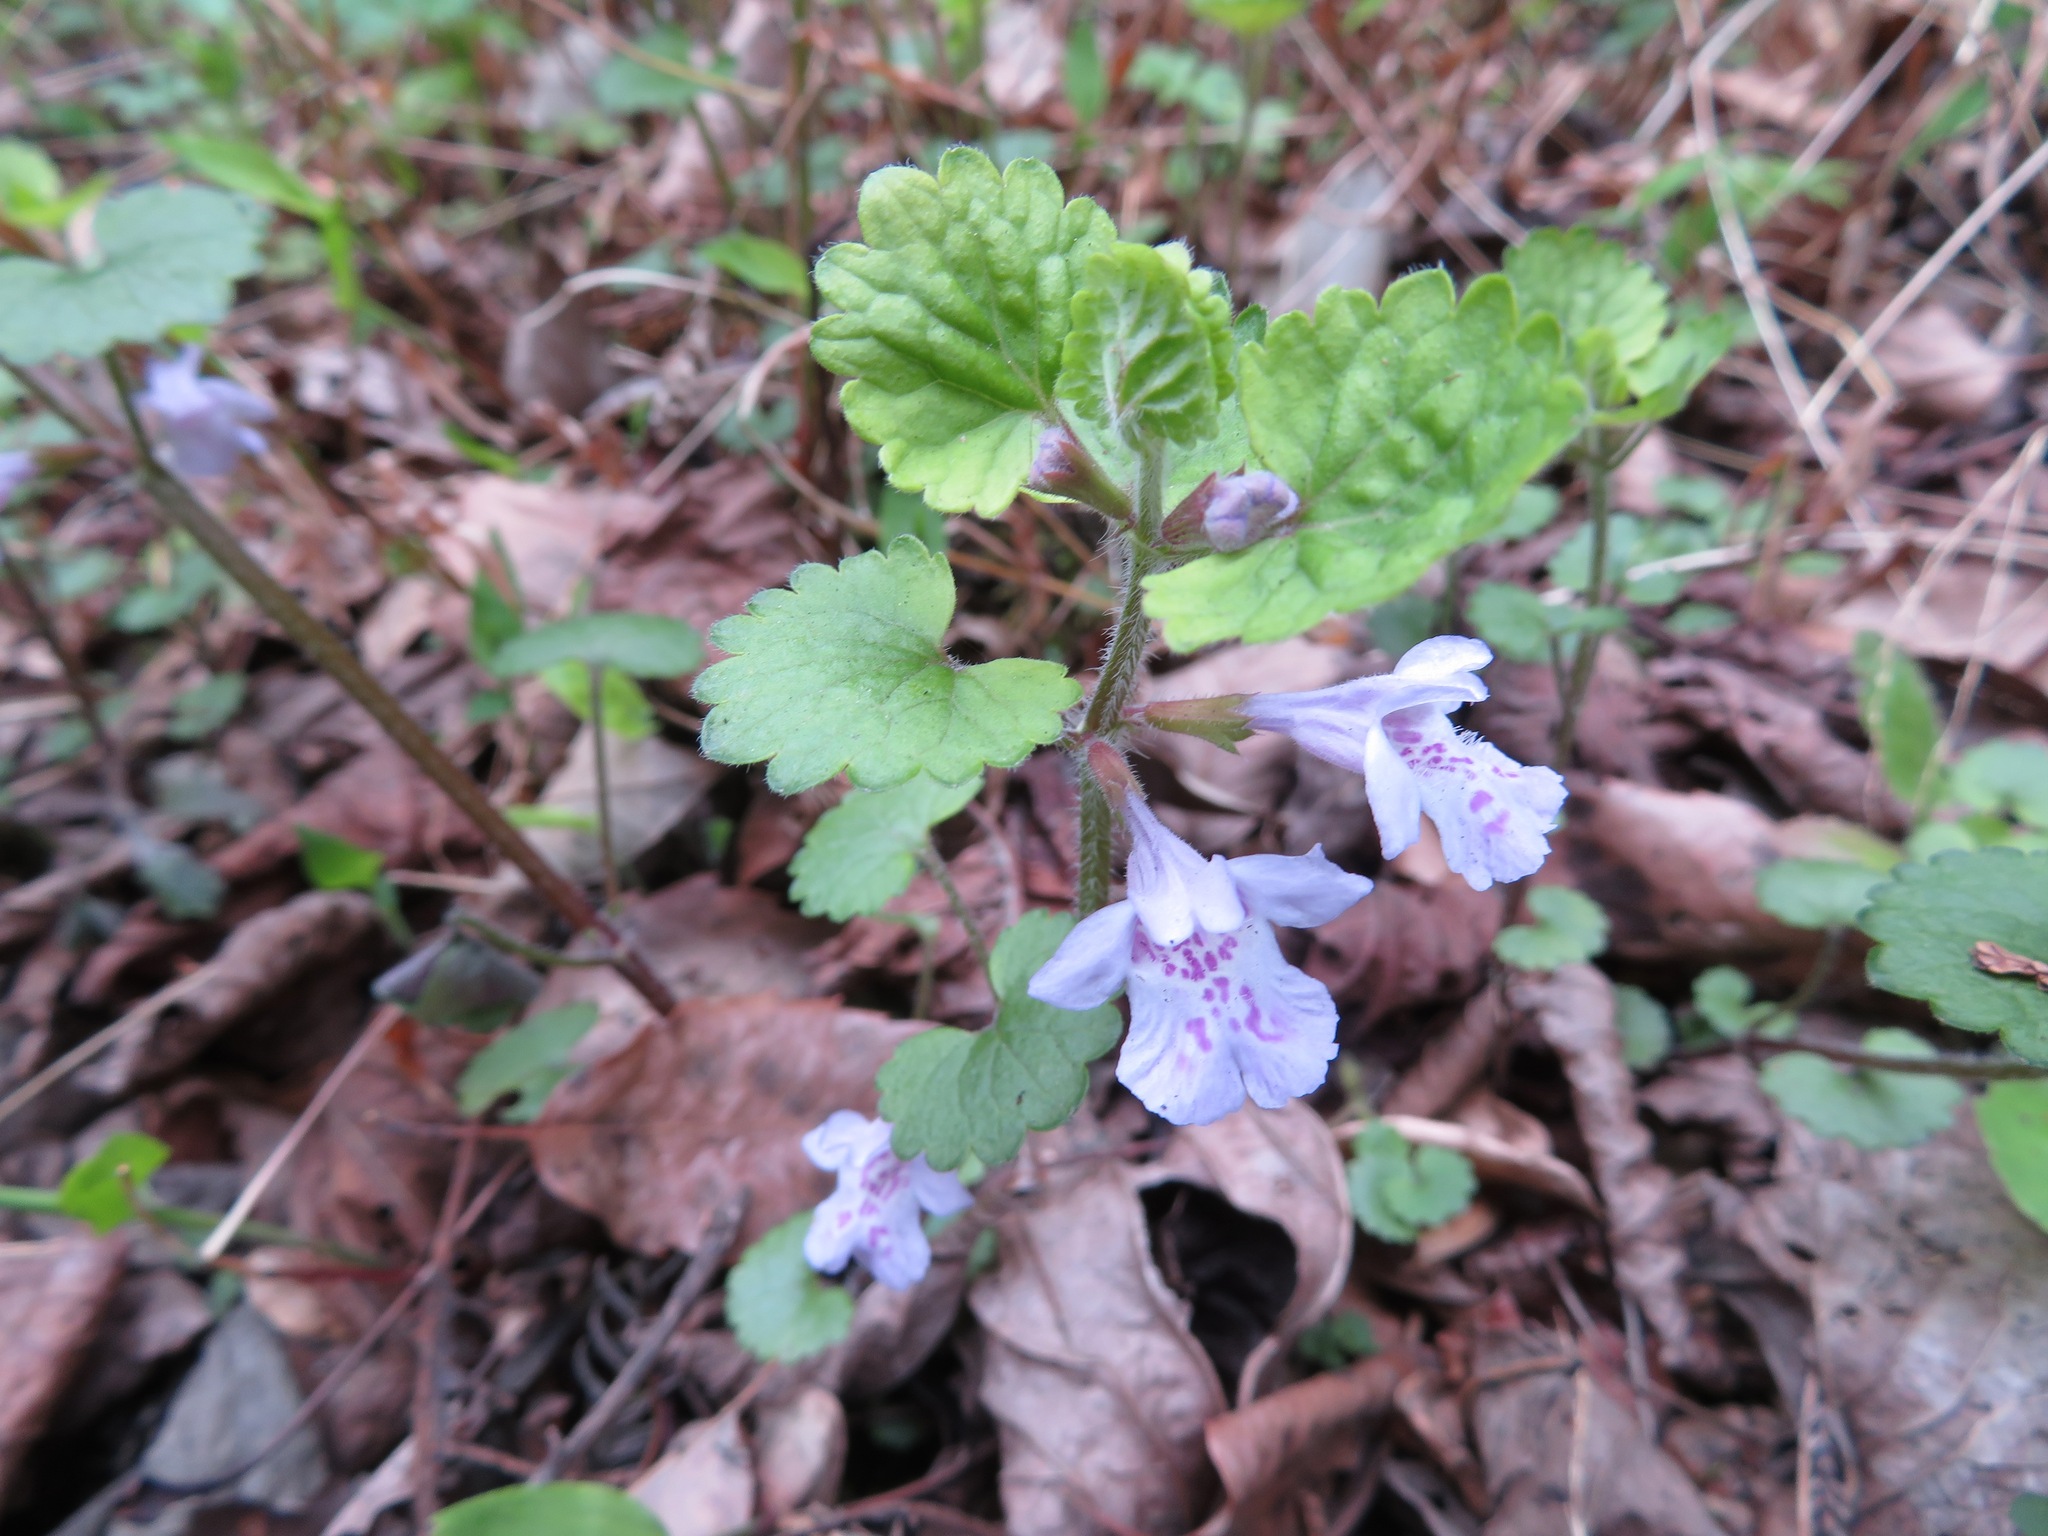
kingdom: Plantae
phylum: Tracheophyta
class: Magnoliopsida
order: Lamiales
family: Lamiaceae
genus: Glechoma
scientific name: Glechoma grandis
